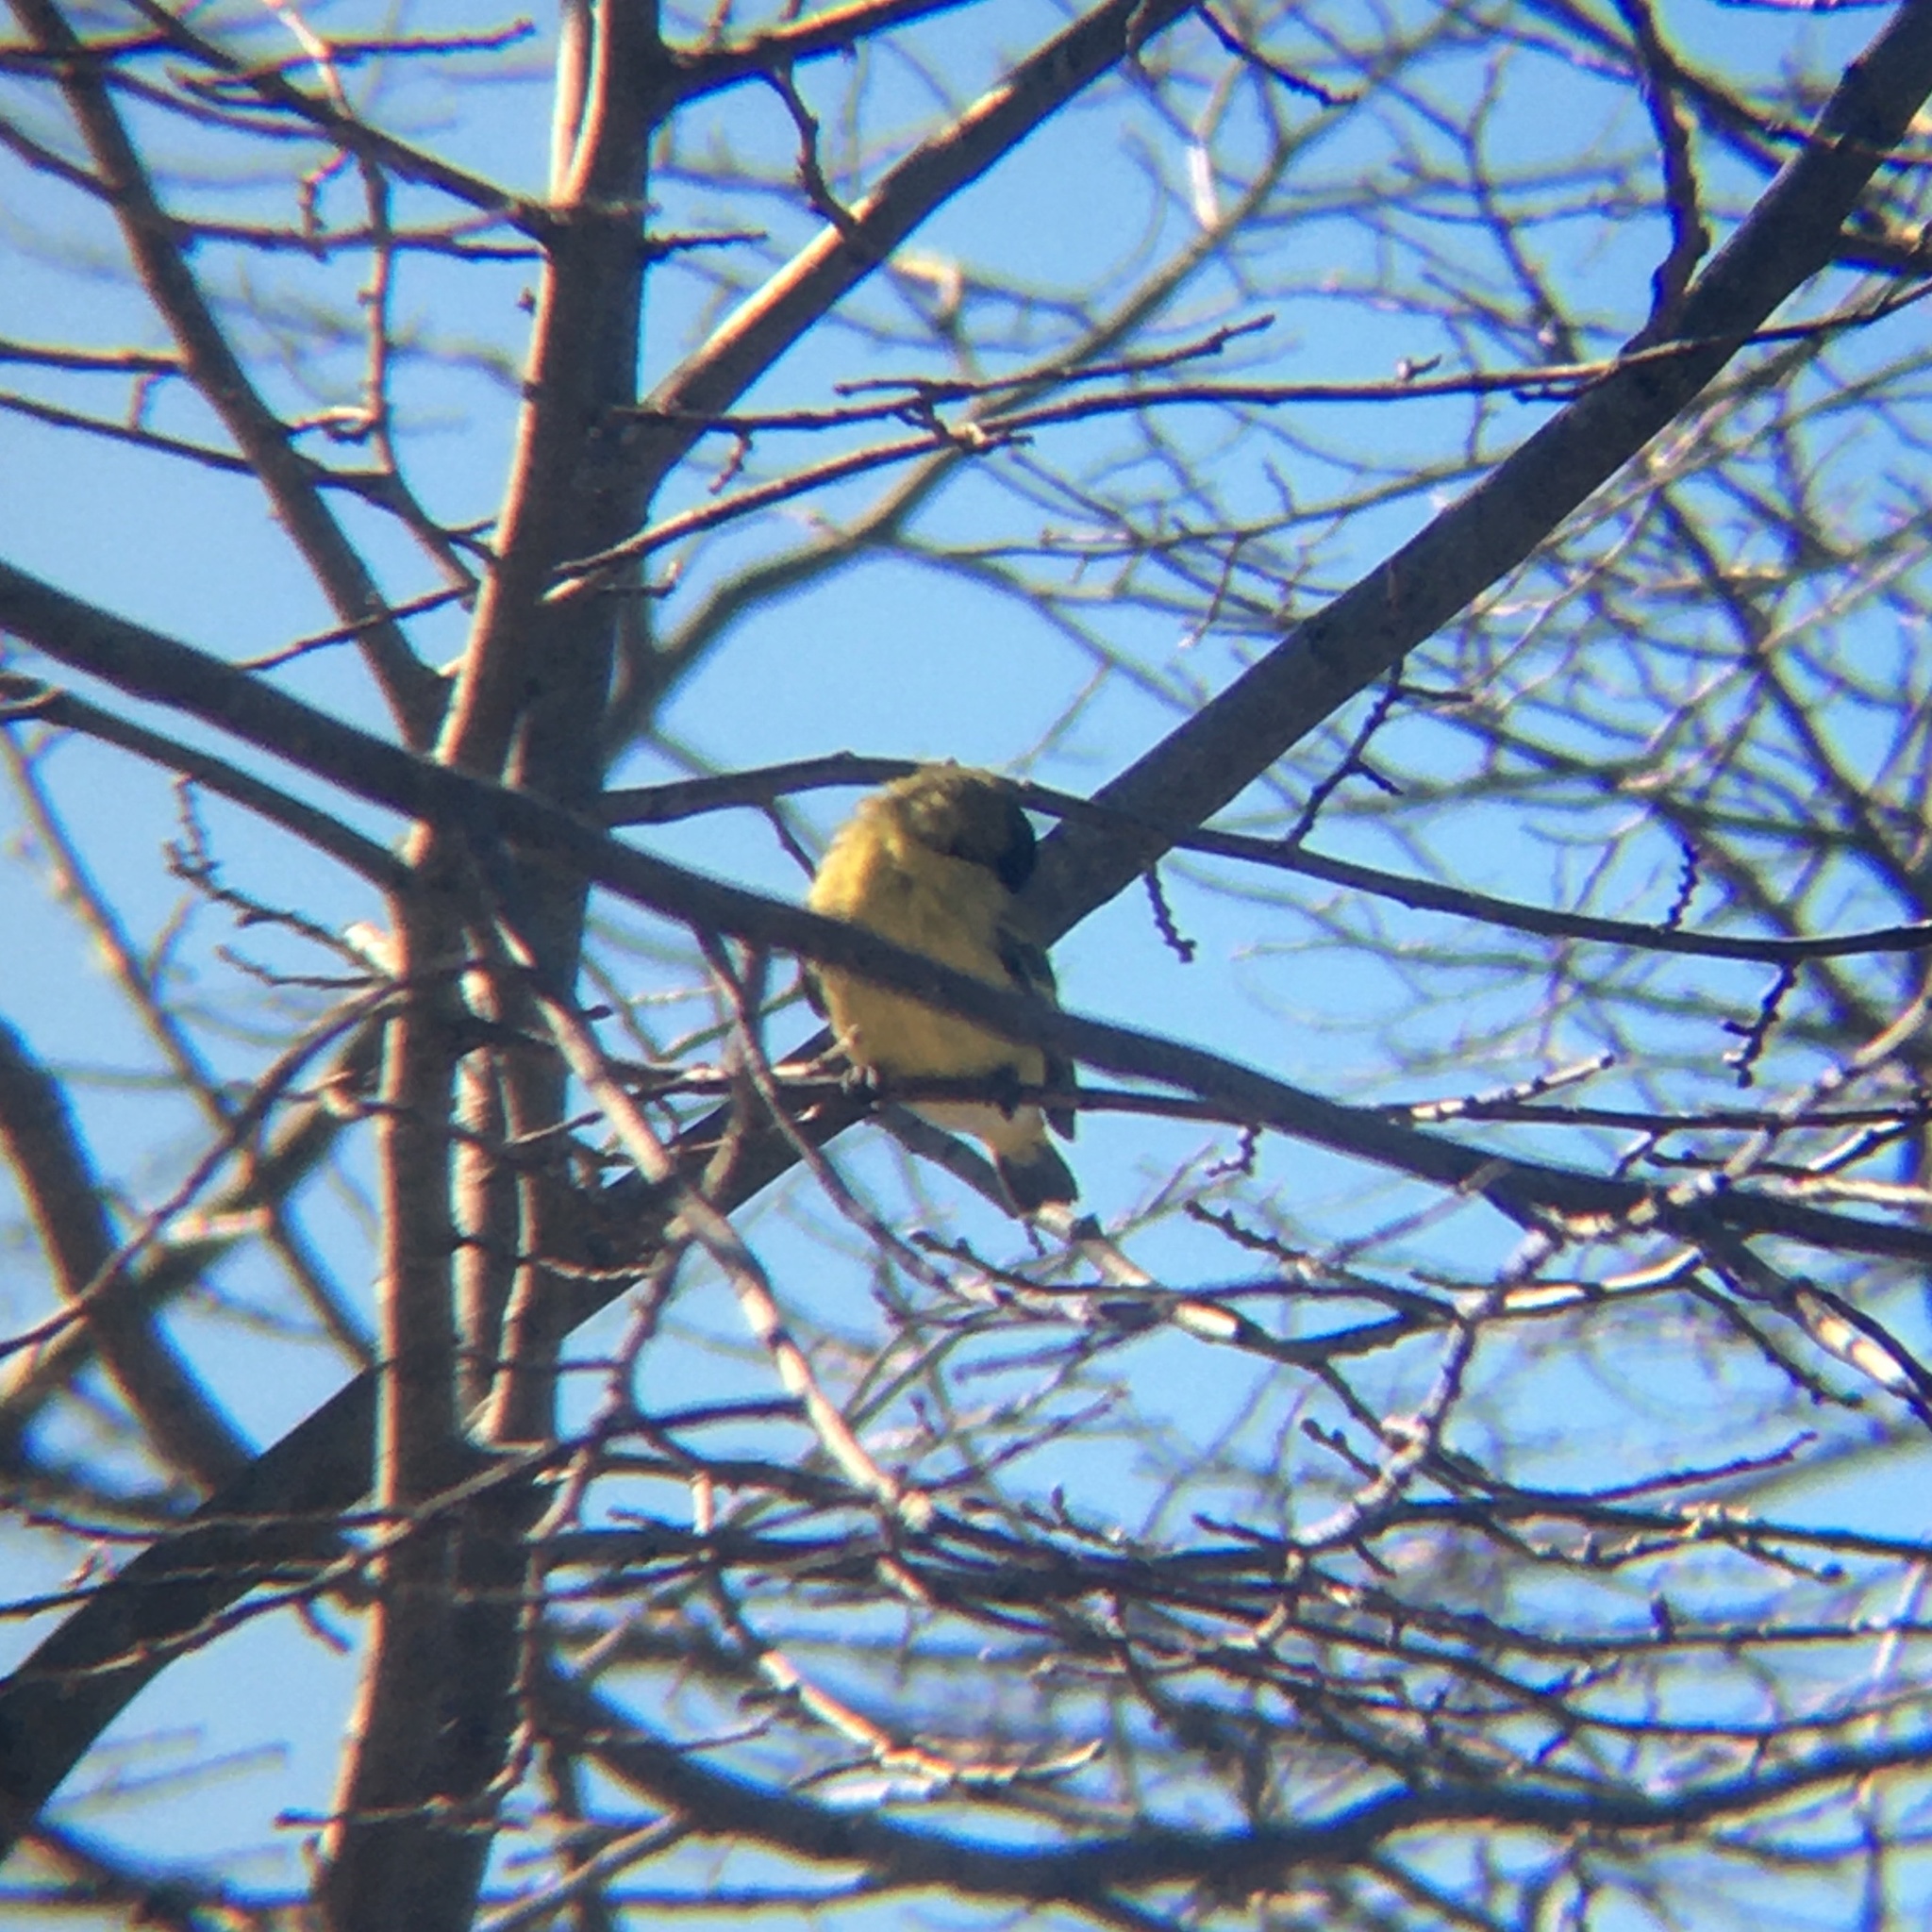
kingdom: Animalia
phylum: Chordata
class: Aves
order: Passeriformes
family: Fringillidae
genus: Spinus
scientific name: Spinus magellanicus
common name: Hooded siskin
